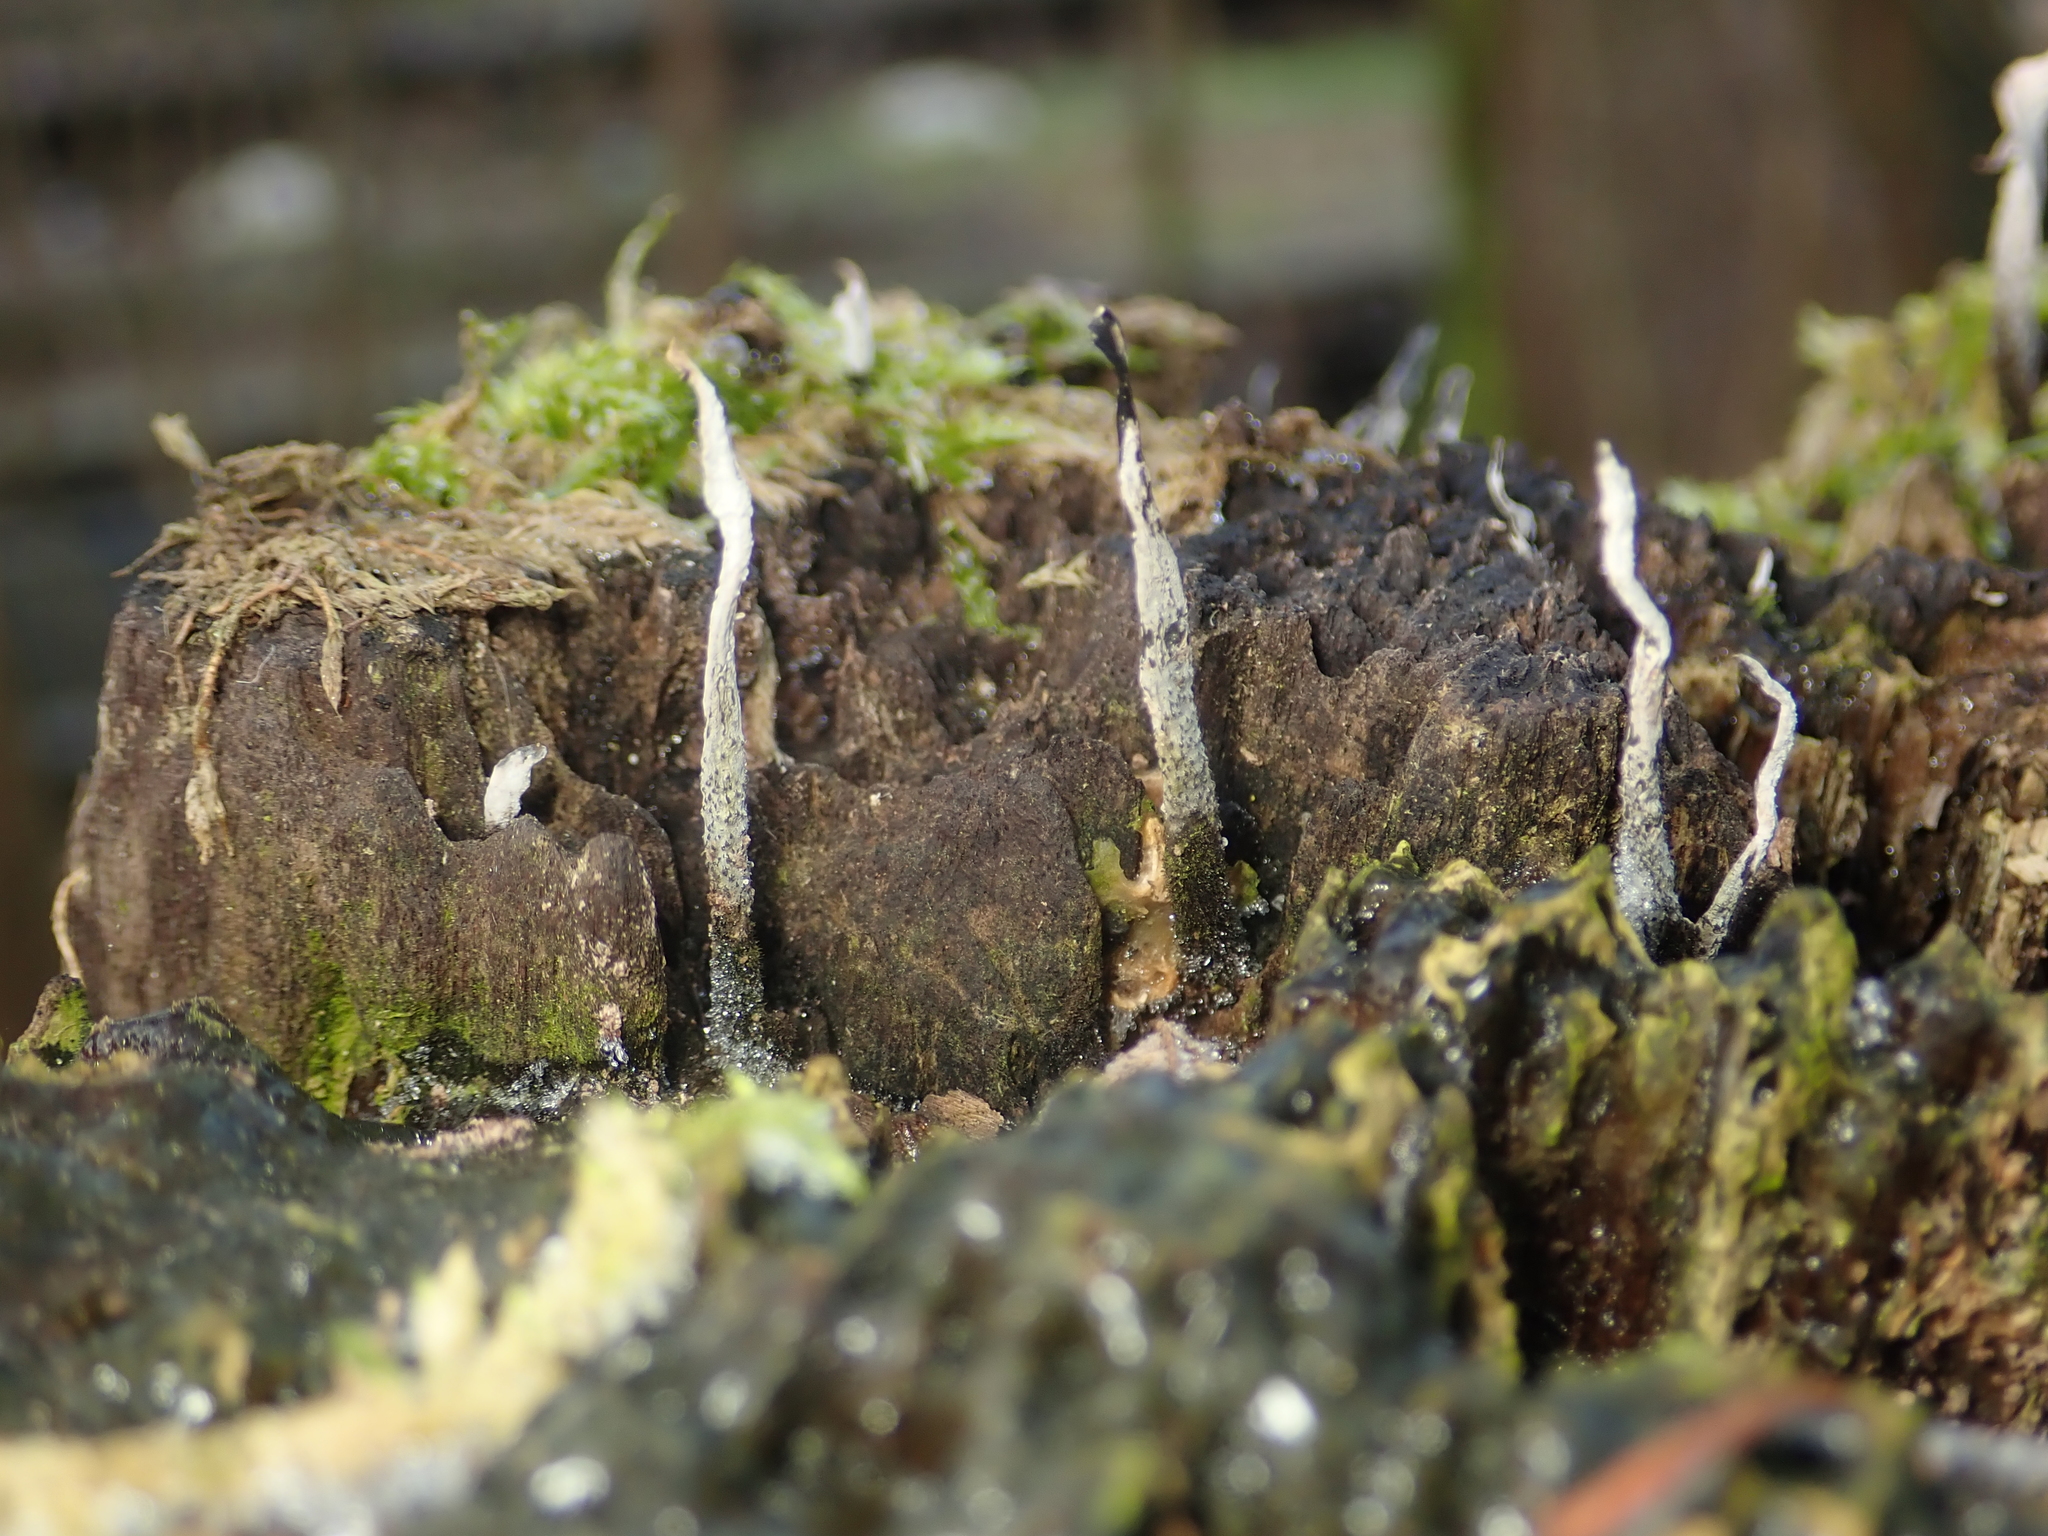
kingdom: Fungi
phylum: Ascomycota
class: Sordariomycetes
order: Xylariales
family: Xylariaceae
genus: Xylaria
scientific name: Xylaria hypoxylon
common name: Candle-snuff fungus
